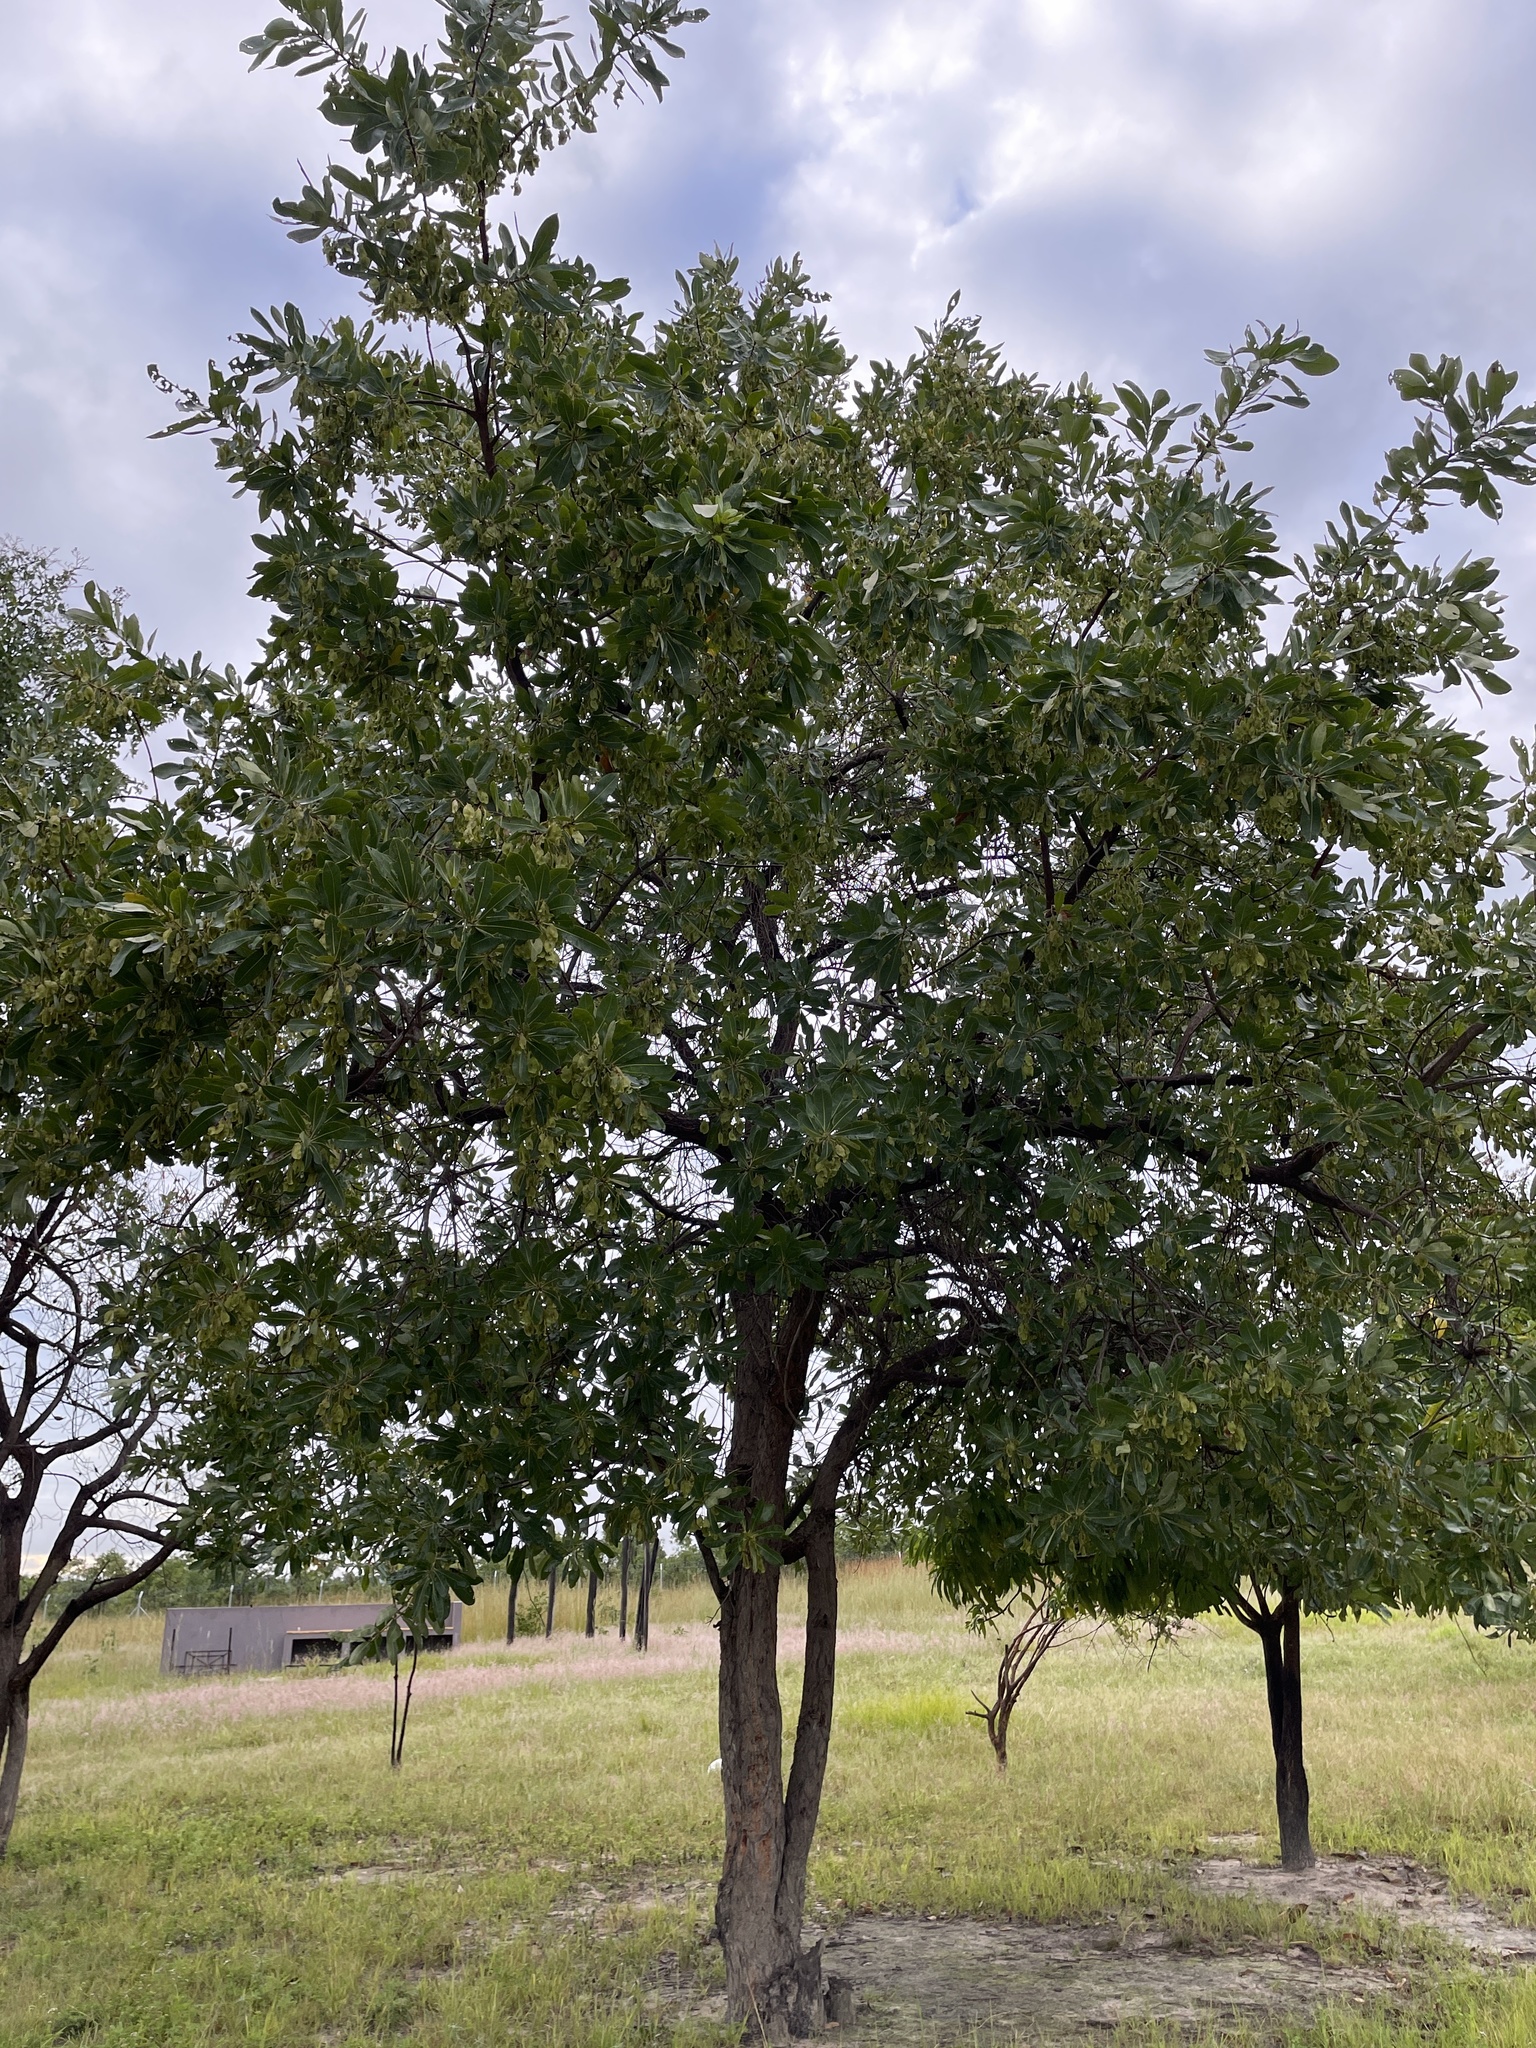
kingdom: Plantae
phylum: Tracheophyta
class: Magnoliopsida
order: Myrtales
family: Combretaceae
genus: Terminalia
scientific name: Terminalia brachystemma
